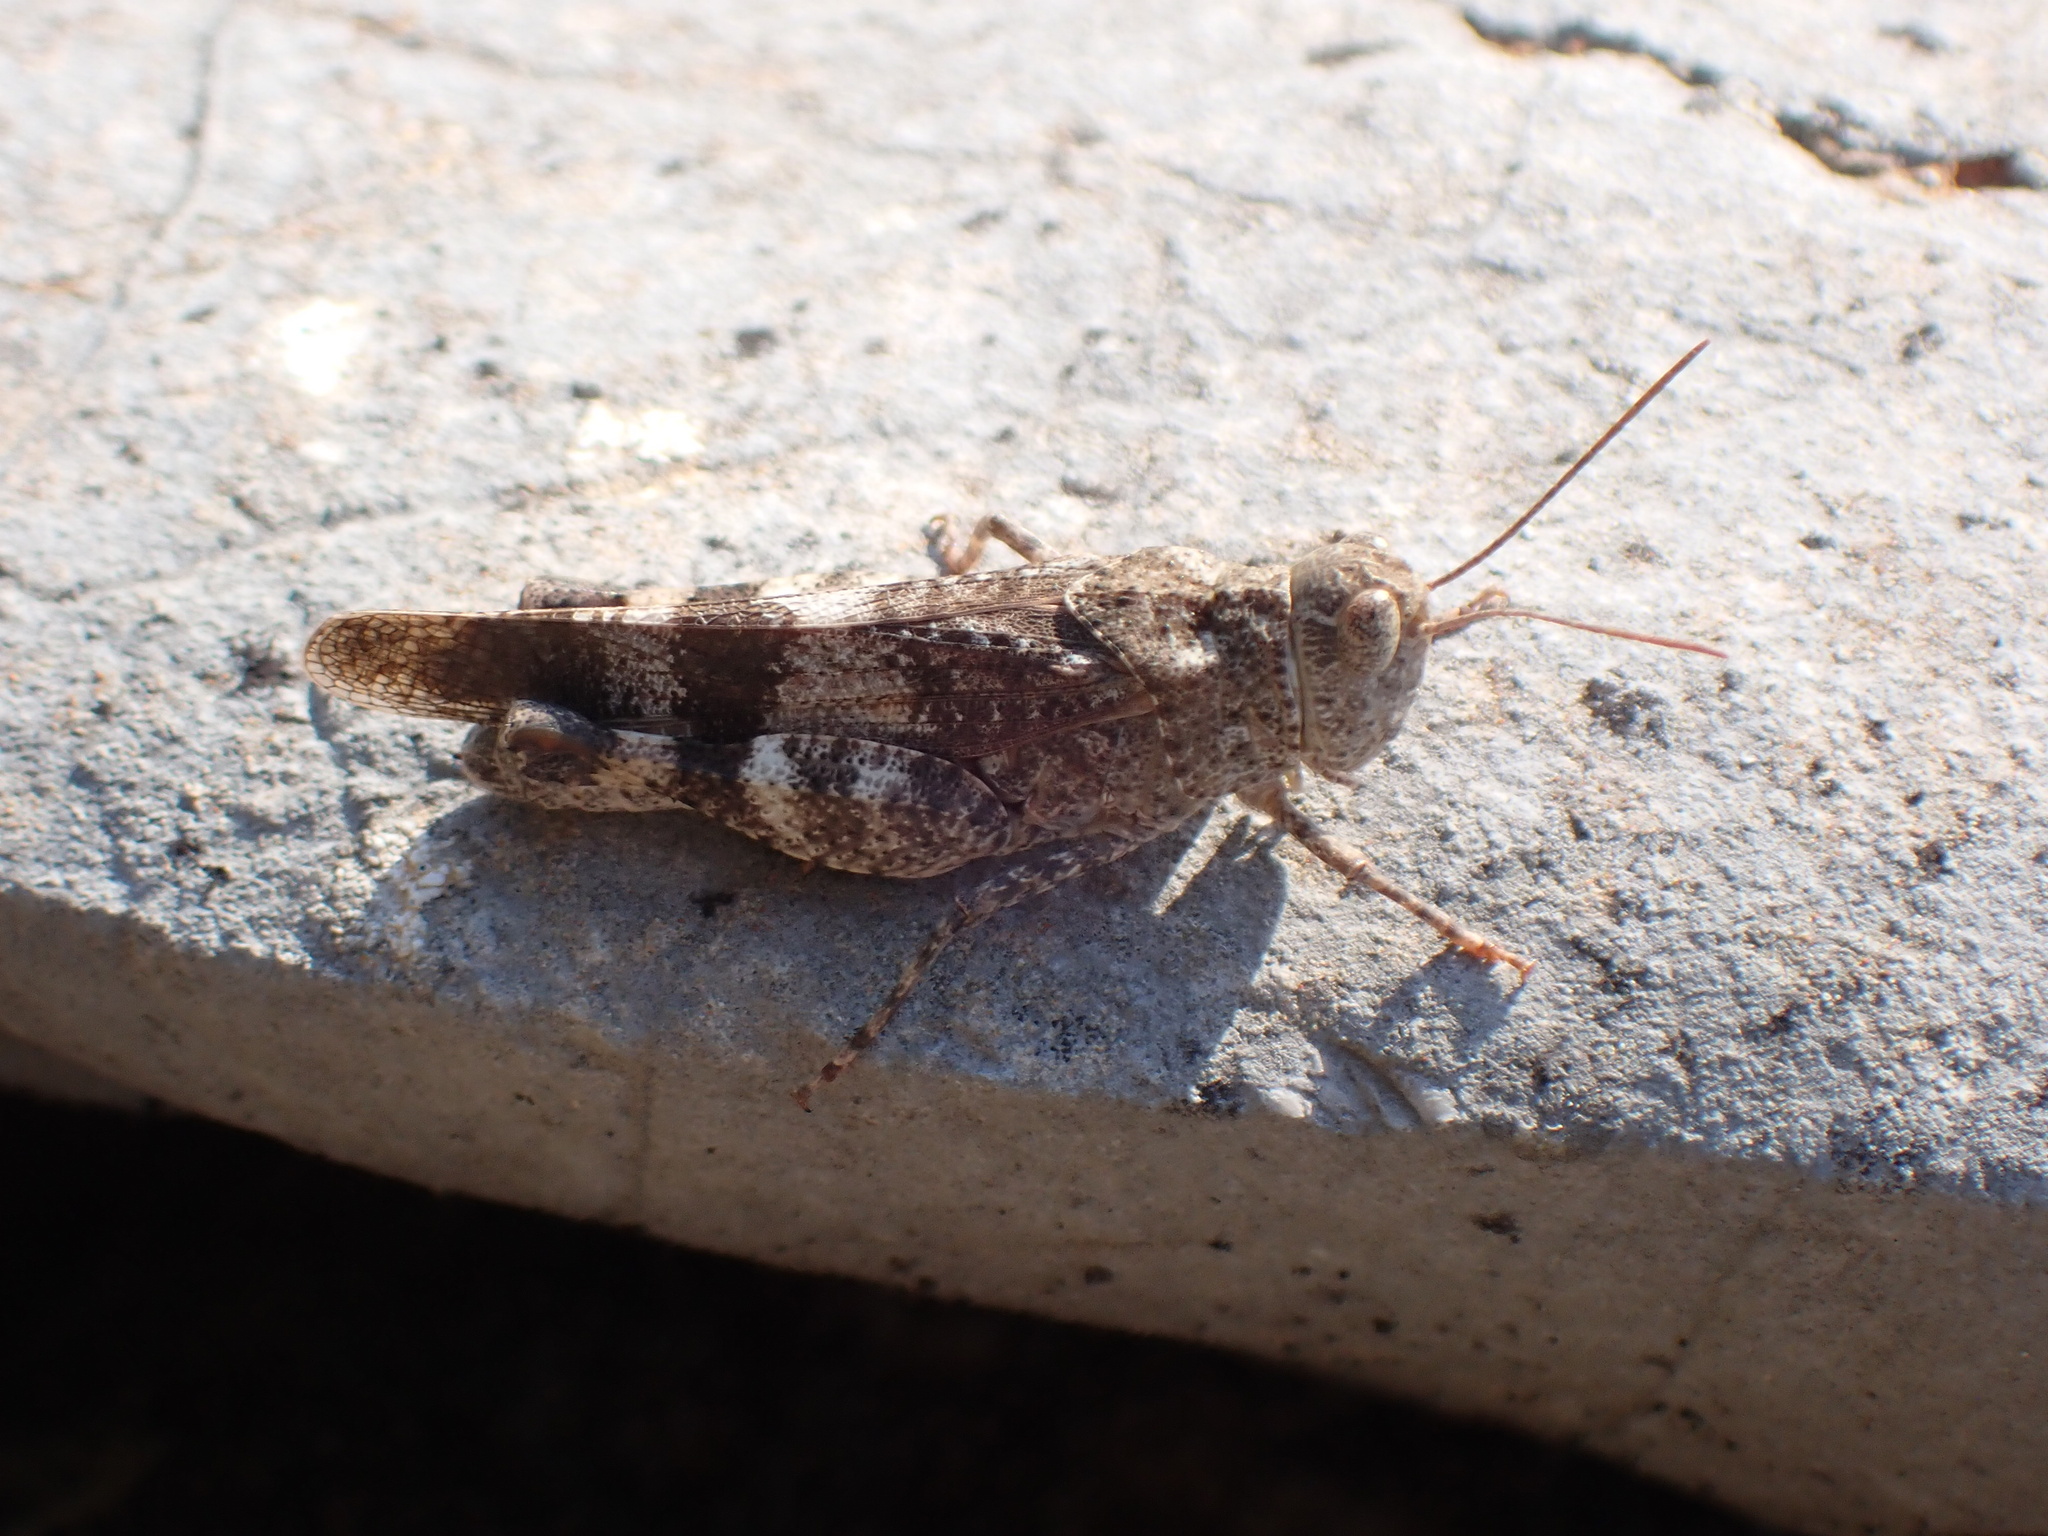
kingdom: Animalia
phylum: Arthropoda
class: Insecta
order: Orthoptera
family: Acrididae
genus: Oedipoda
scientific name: Oedipoda germanica
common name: Red band-winged grasshopper
